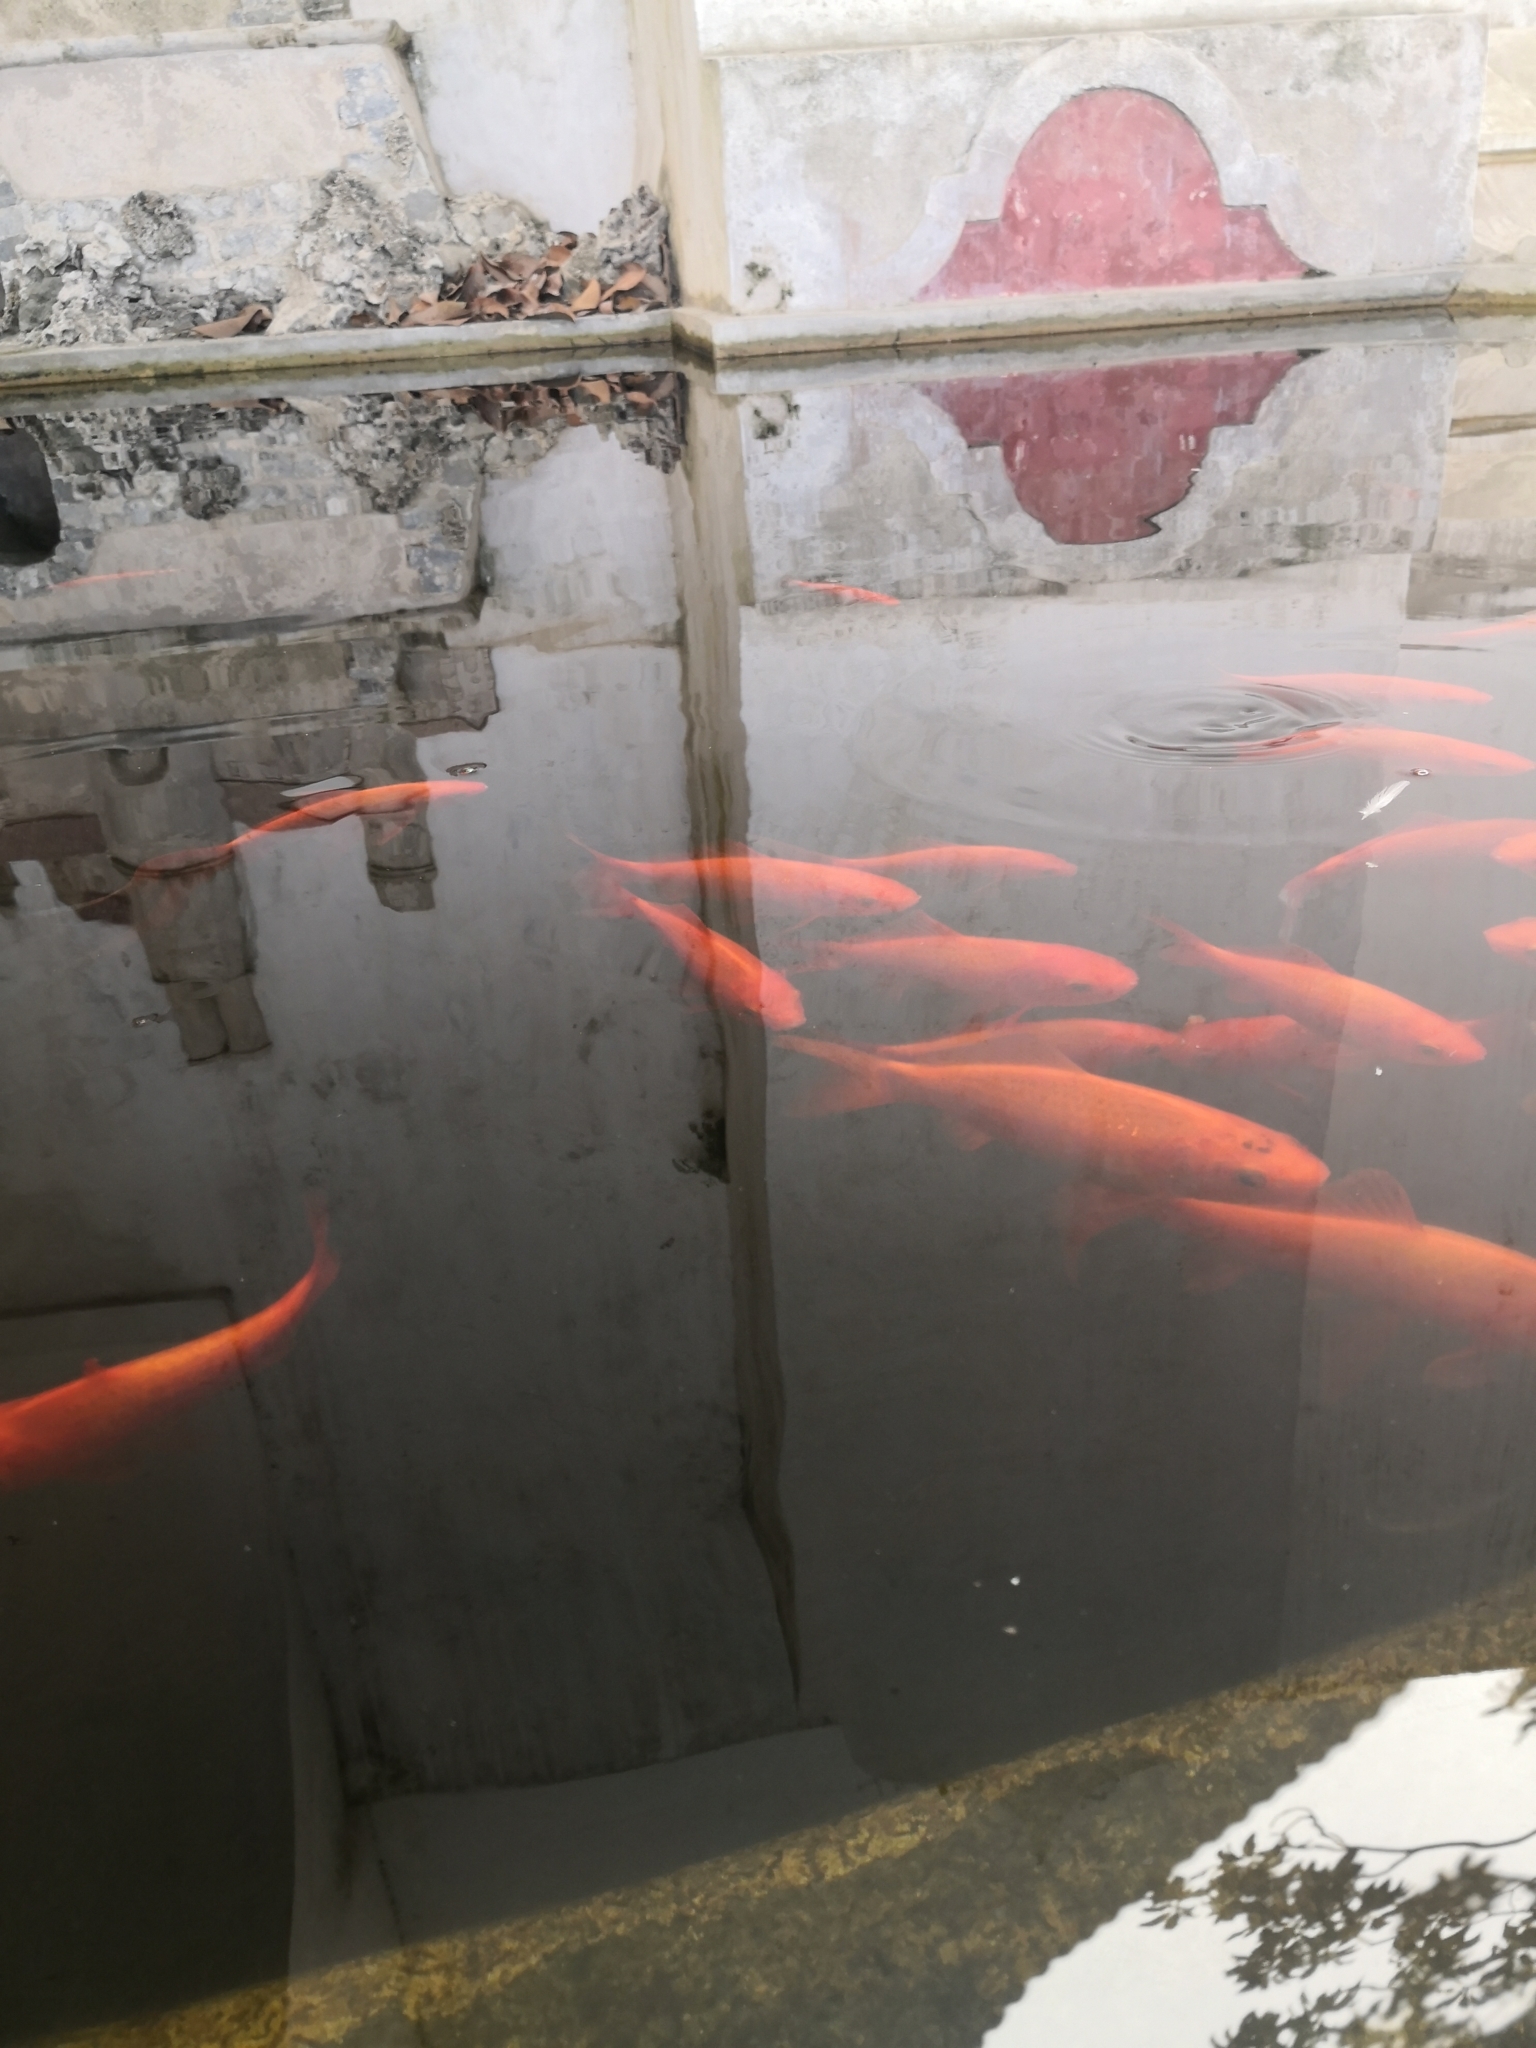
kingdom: Animalia
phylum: Chordata
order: Cypriniformes
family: Cyprinidae
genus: Carassius
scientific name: Carassius auratus
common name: Goldfish
